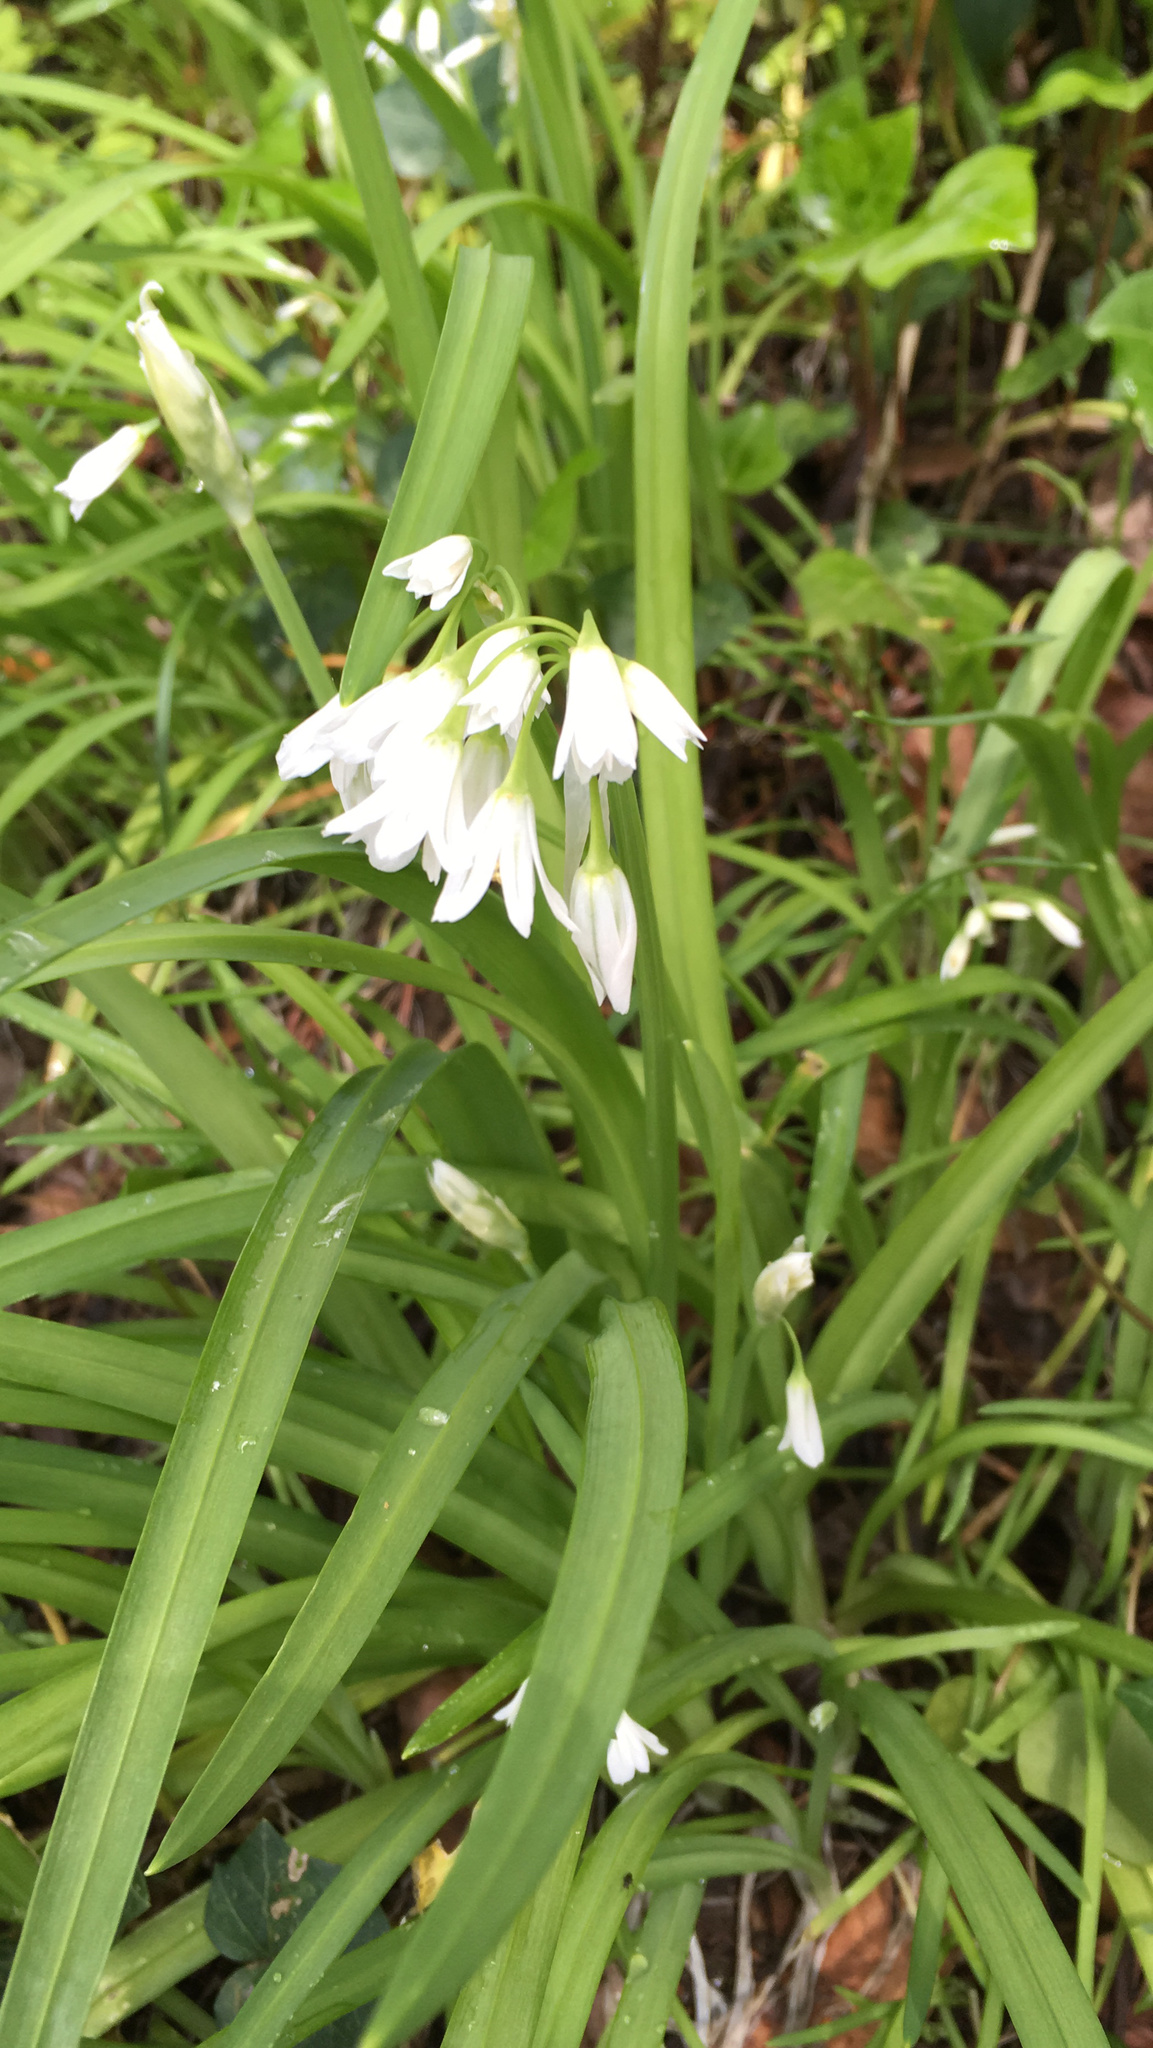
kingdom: Plantae
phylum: Tracheophyta
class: Liliopsida
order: Asparagales
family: Amaryllidaceae
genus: Allium
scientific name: Allium triquetrum
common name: Three-cornered garlic
